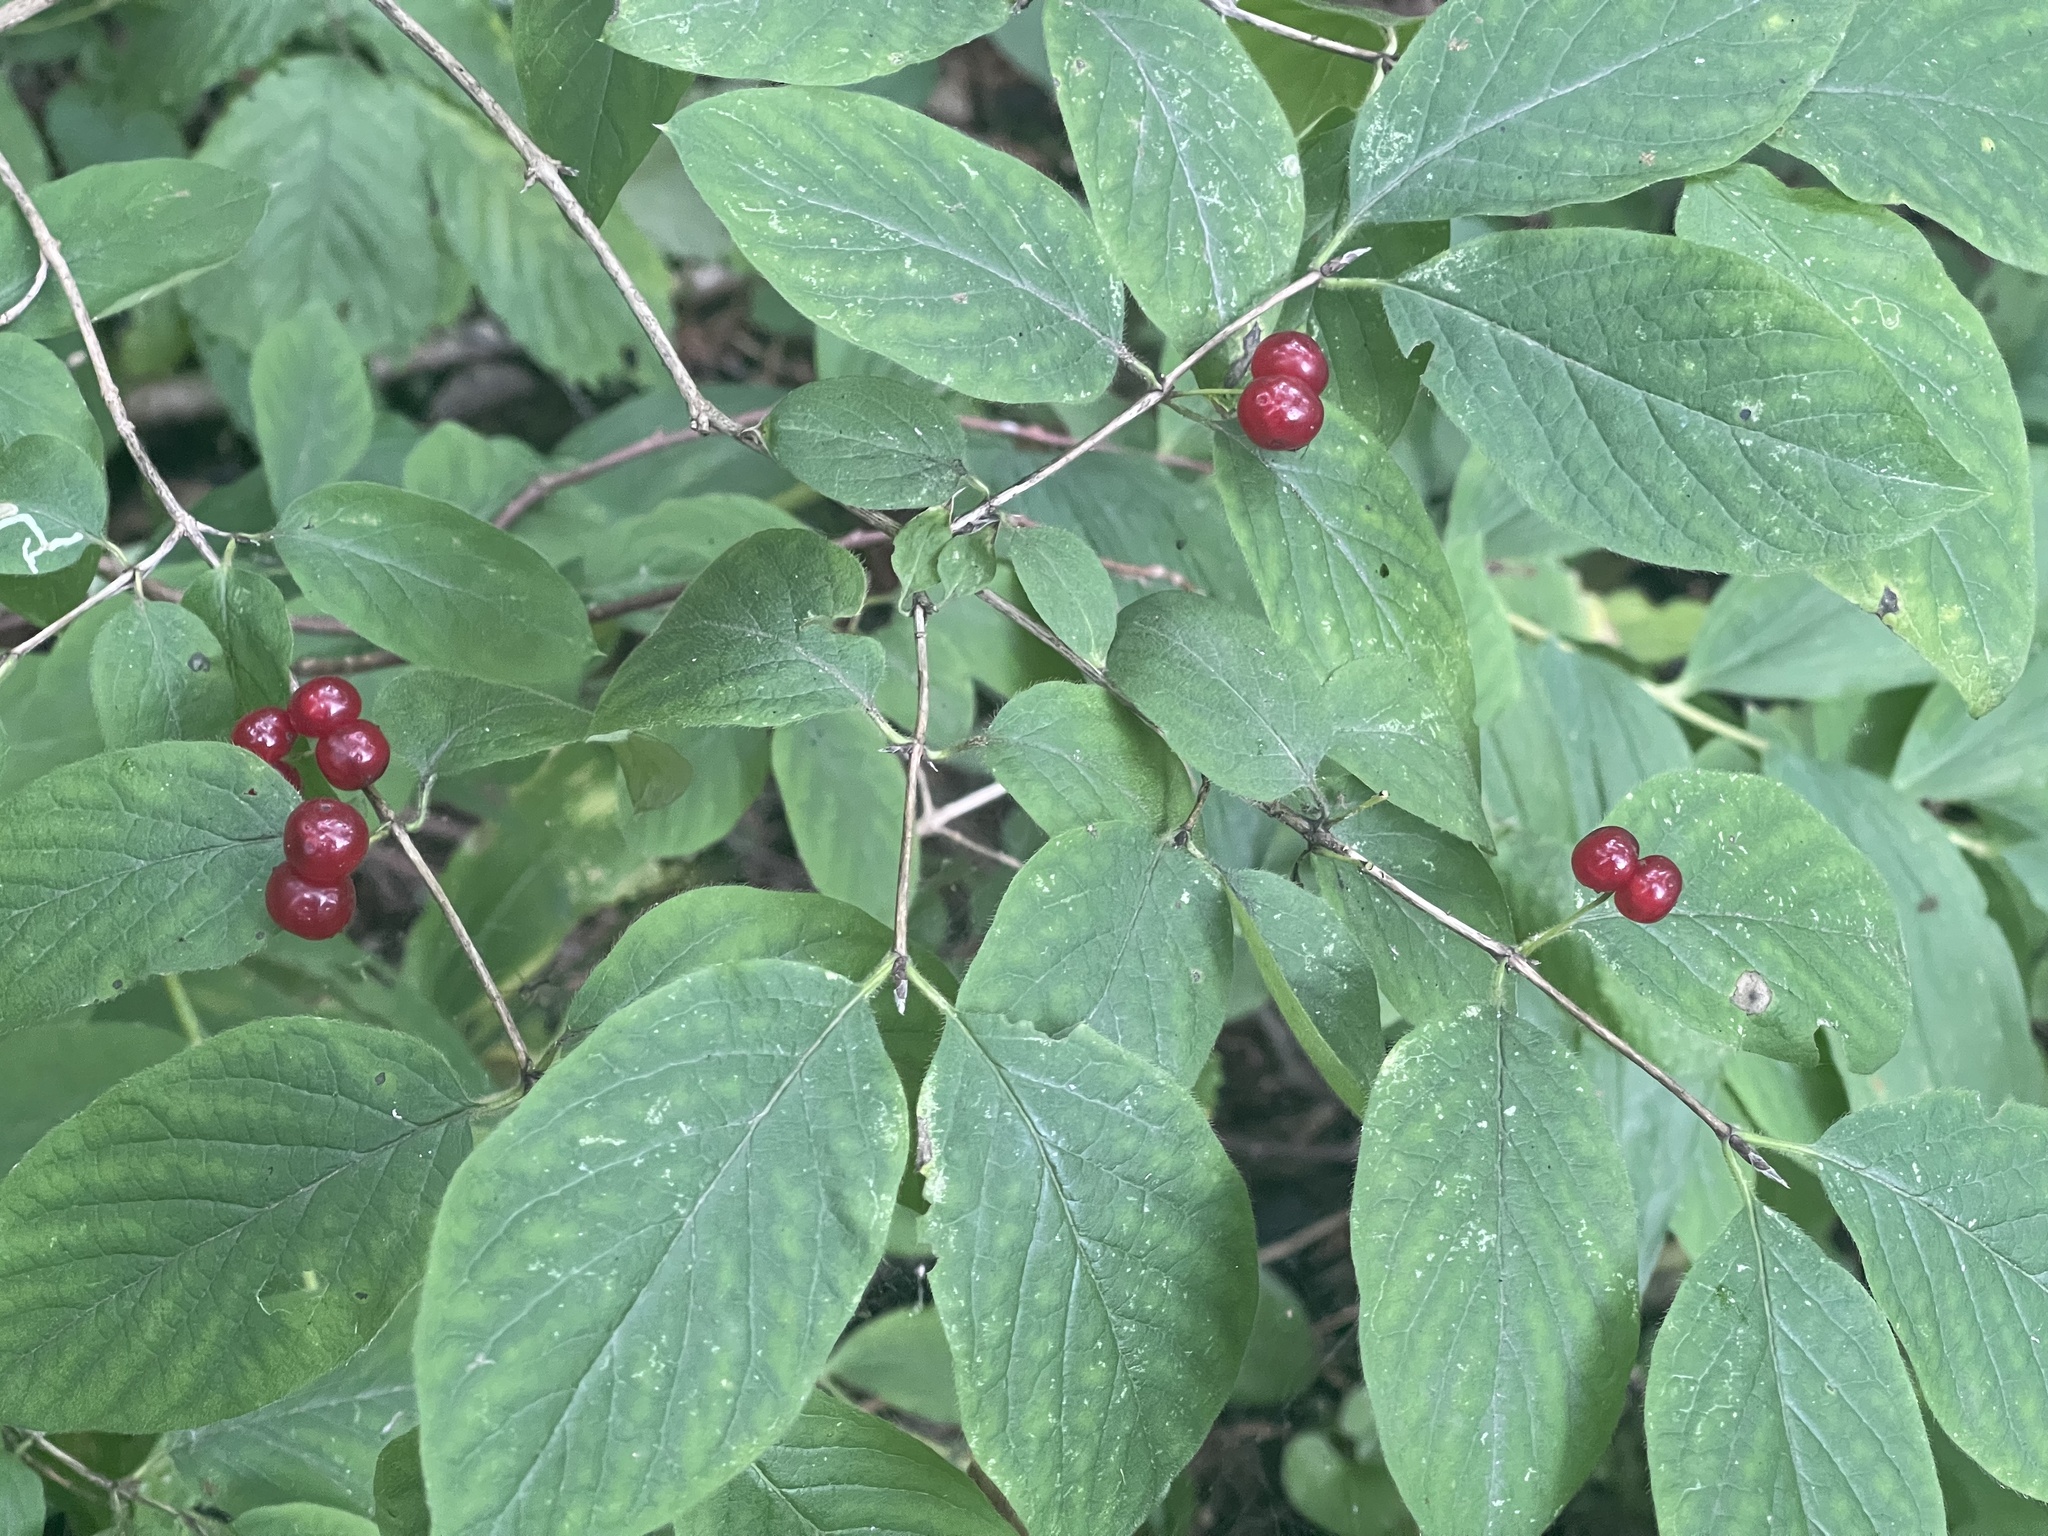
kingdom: Plantae
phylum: Tracheophyta
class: Magnoliopsida
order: Dipsacales
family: Caprifoliaceae
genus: Lonicera
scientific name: Lonicera xylosteum
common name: Fly honeysuckle
